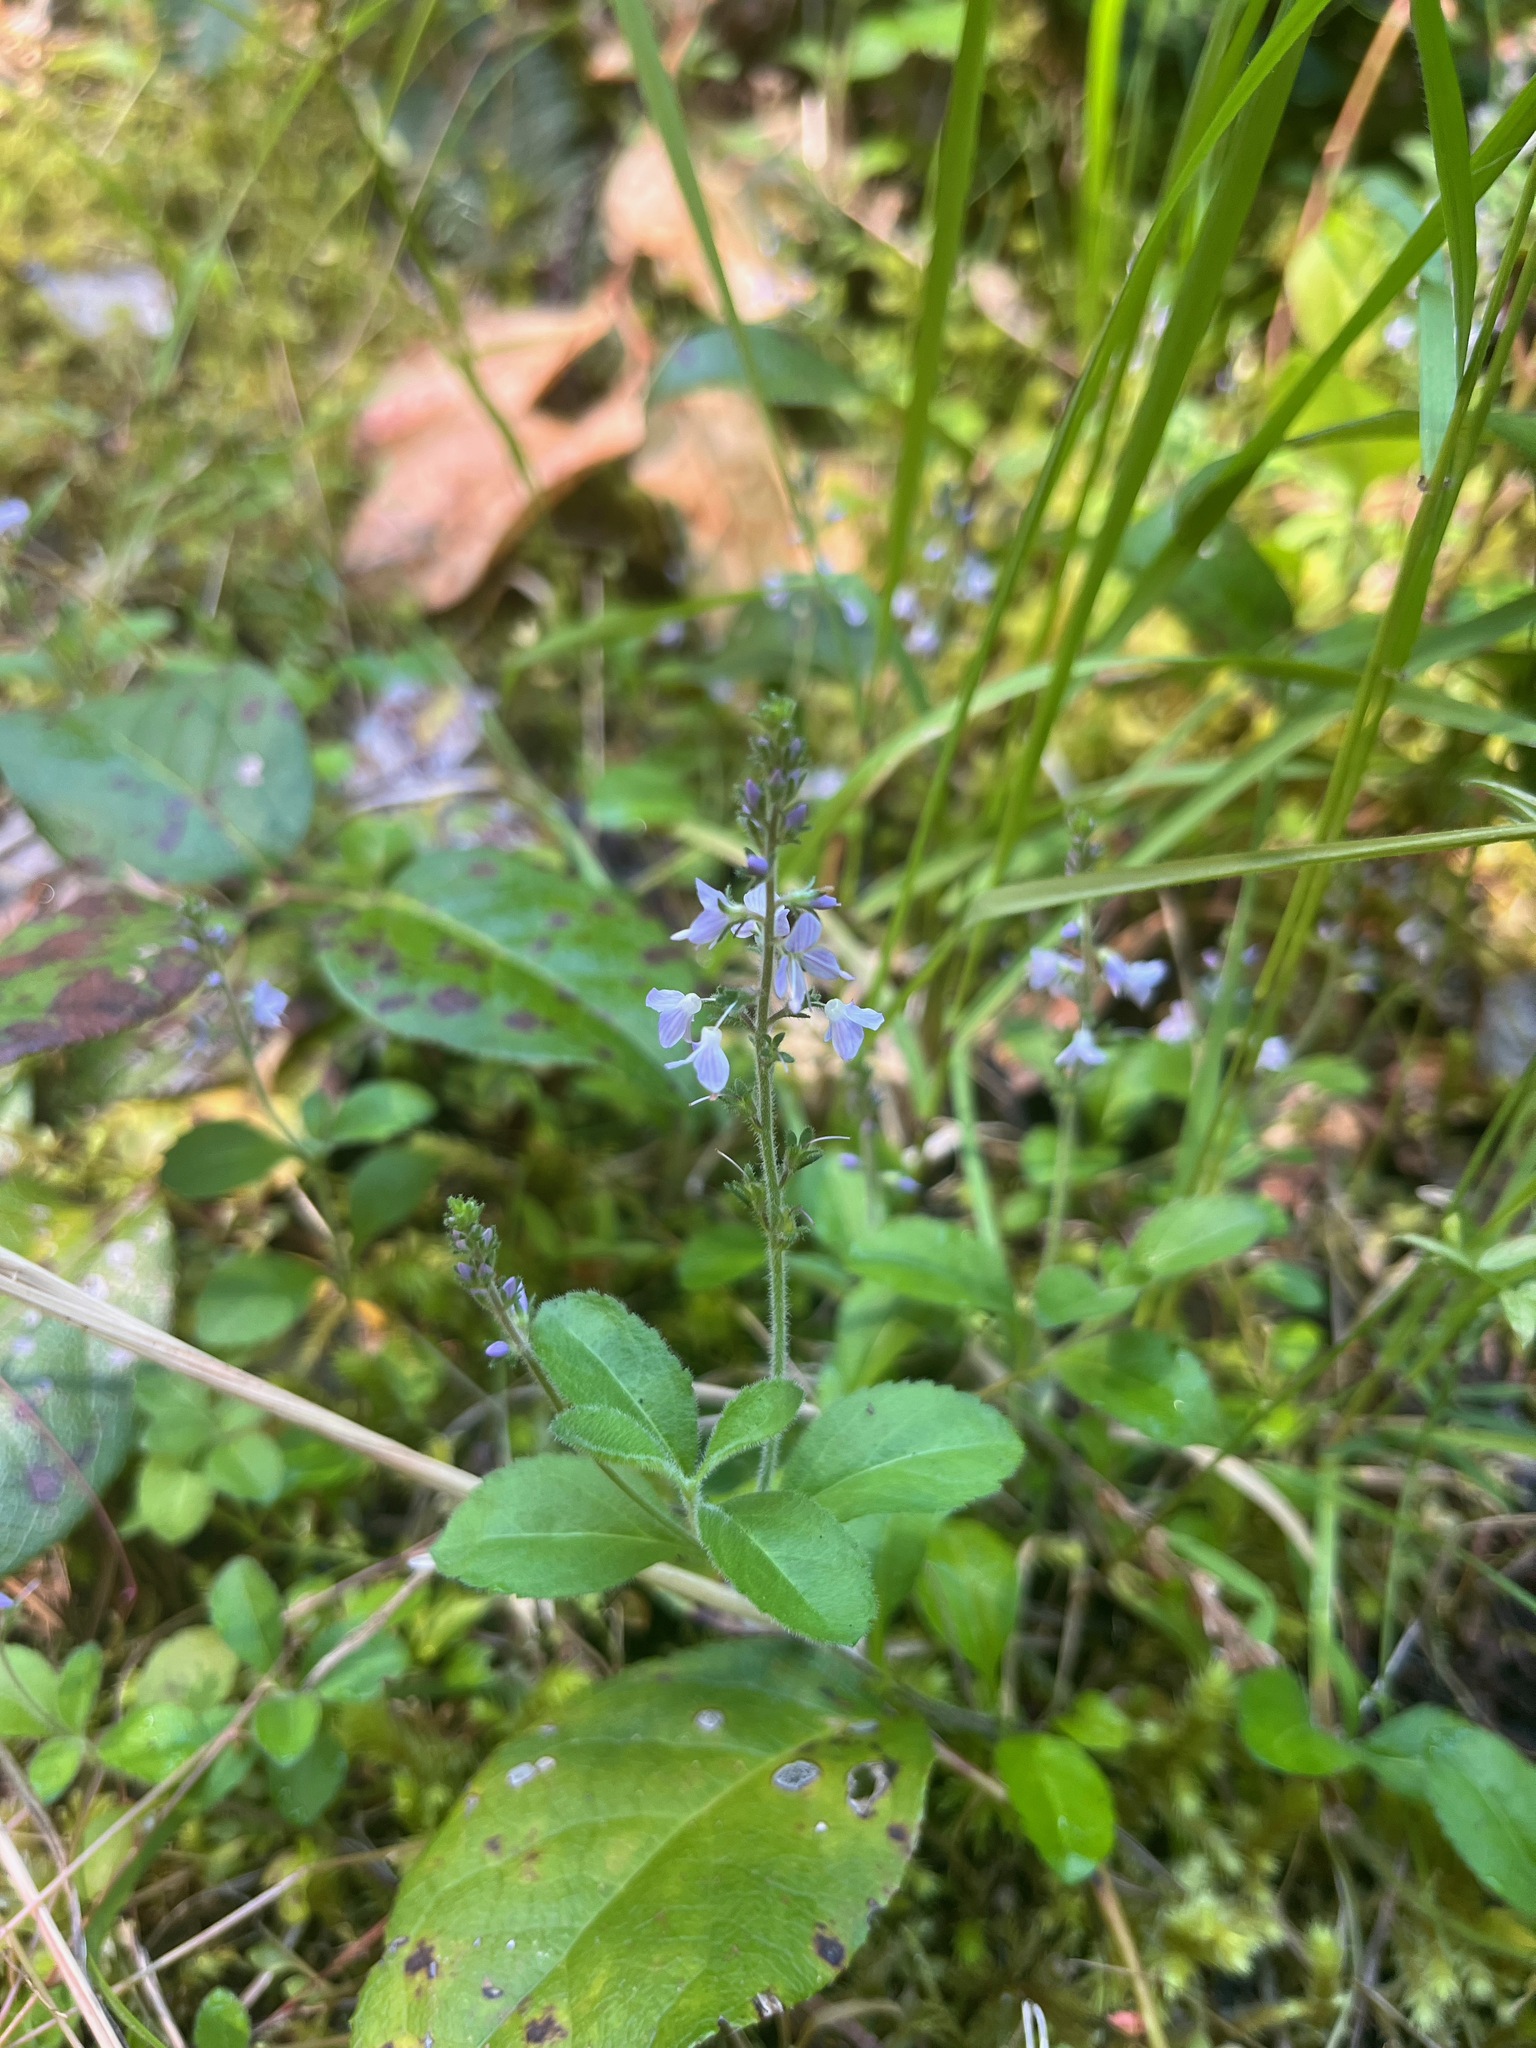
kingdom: Plantae
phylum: Tracheophyta
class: Magnoliopsida
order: Lamiales
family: Plantaginaceae
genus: Veronica
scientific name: Veronica officinalis
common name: Common speedwell
